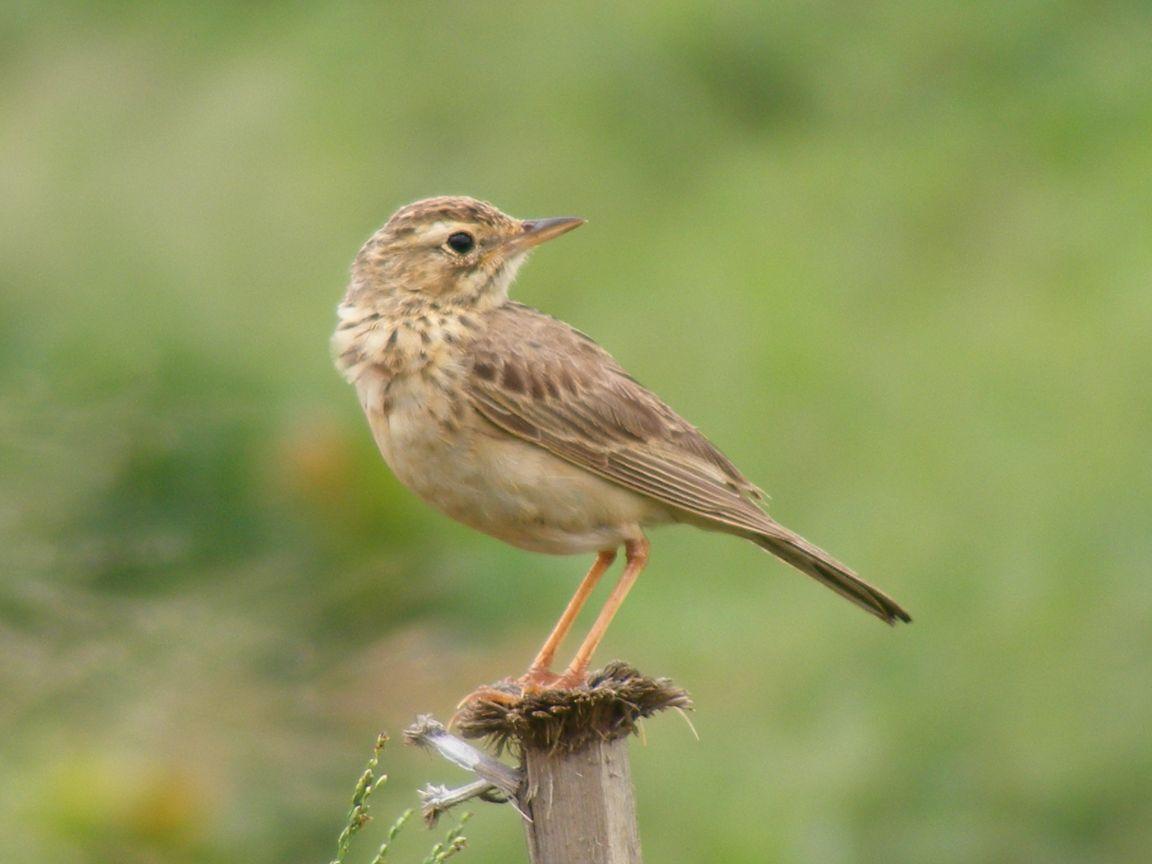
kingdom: Animalia
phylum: Chordata
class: Aves
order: Passeriformes
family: Motacillidae
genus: Anthus
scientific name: Anthus cinnamomeus
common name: African pipit
